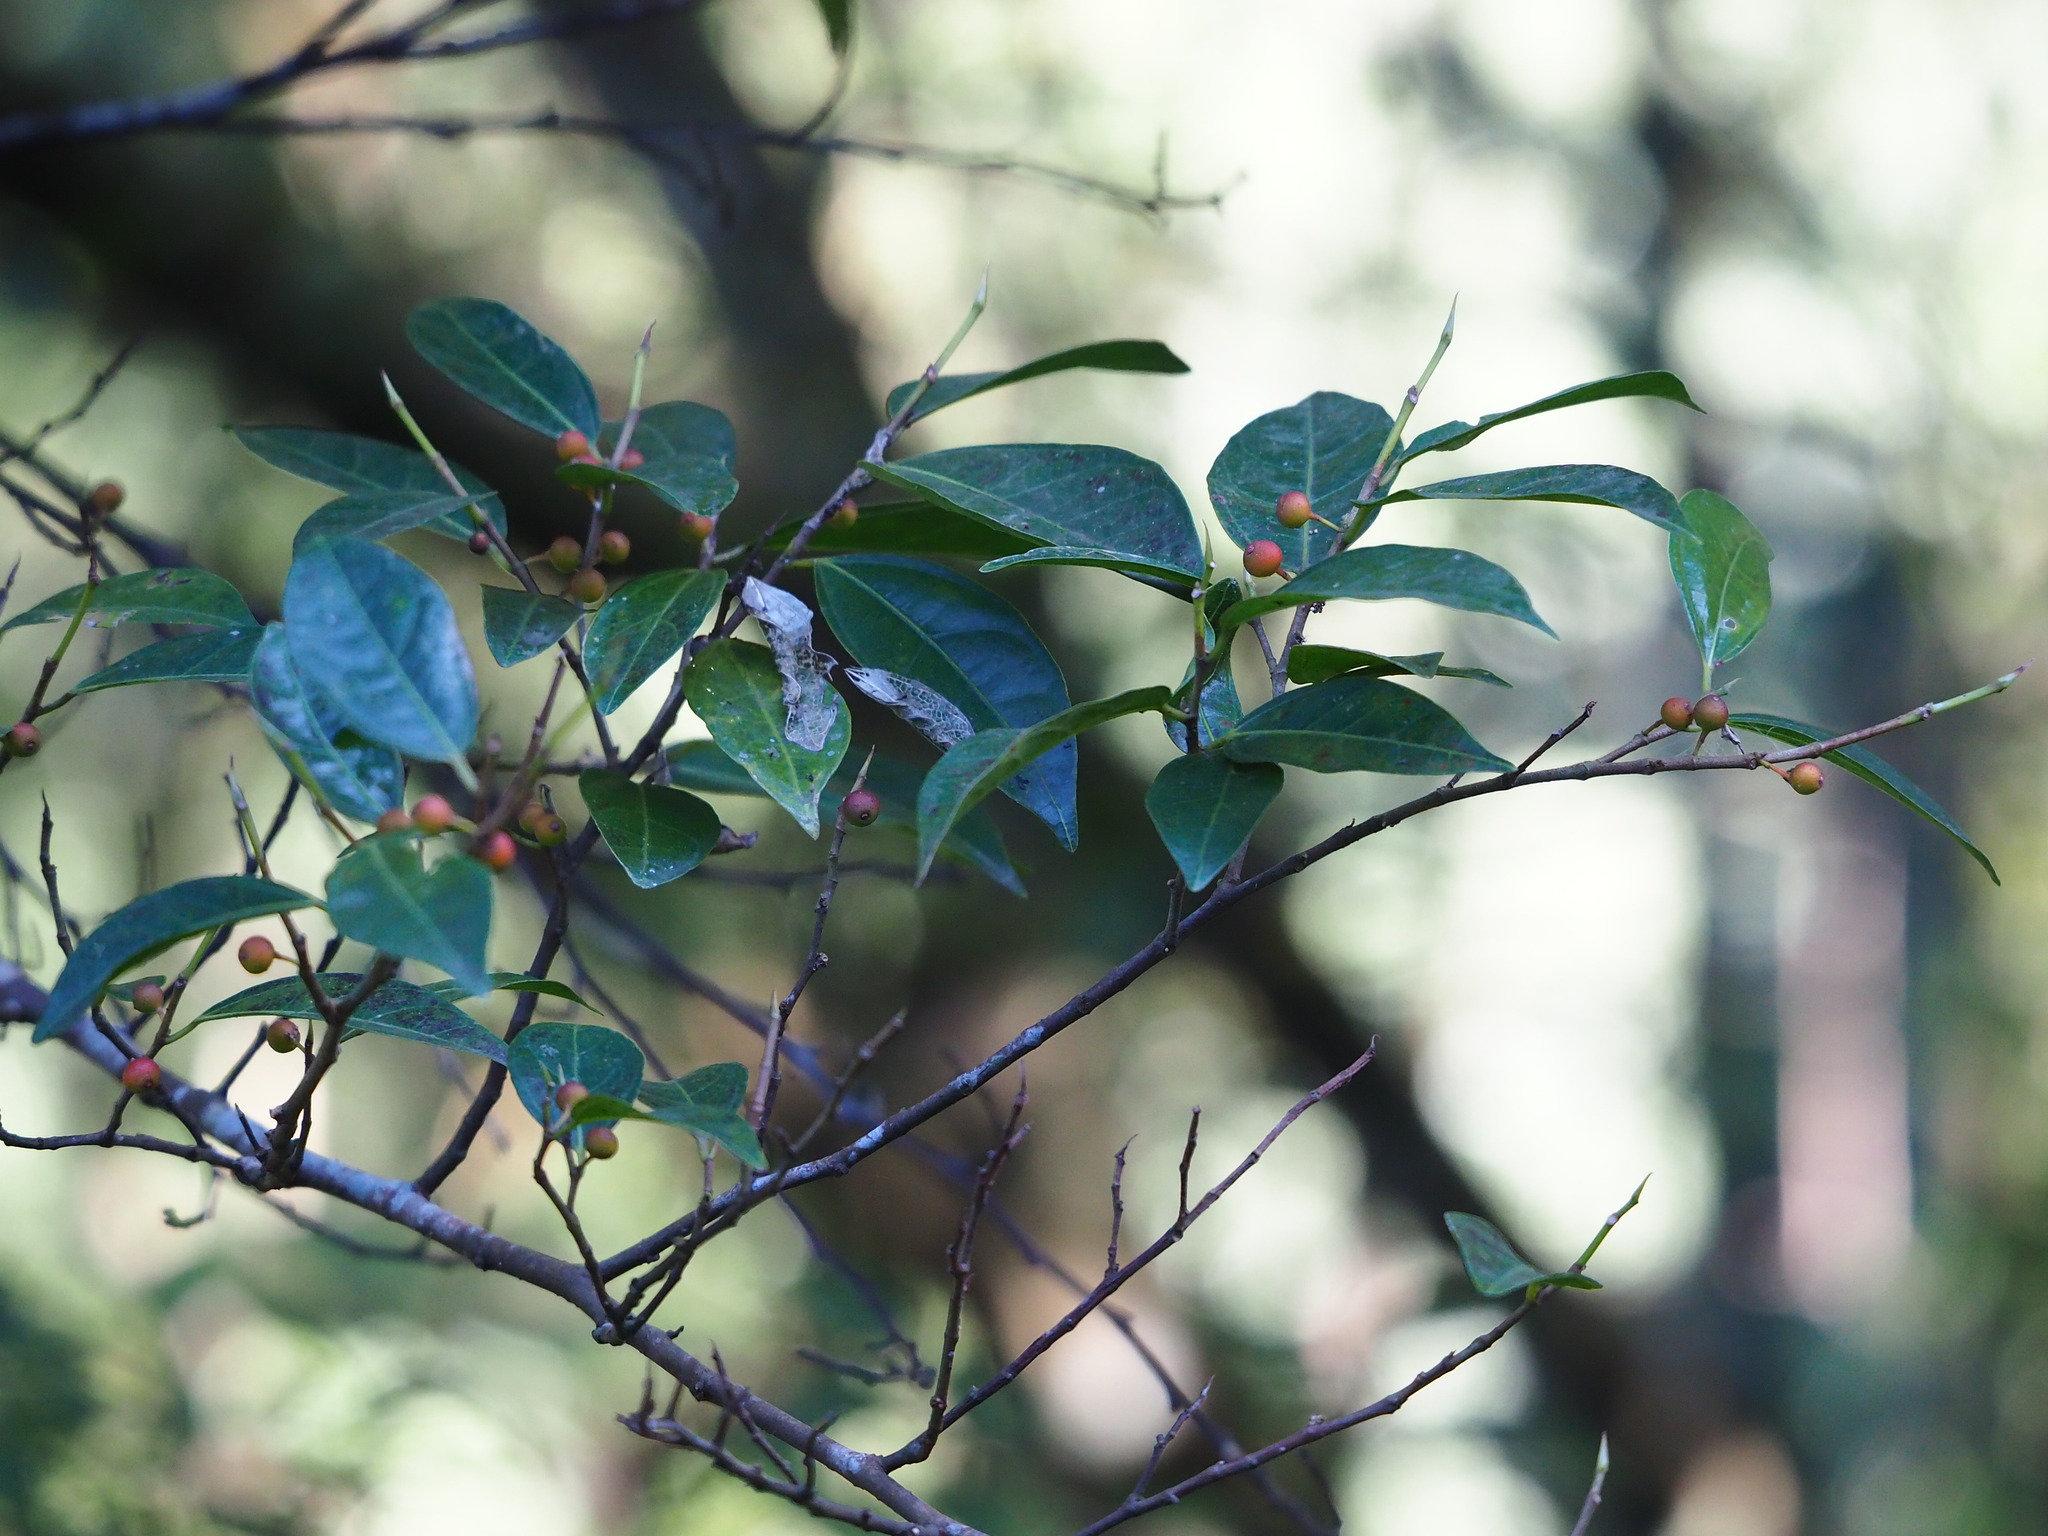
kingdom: Plantae
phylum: Tracheophyta
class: Magnoliopsida
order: Rosales
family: Moraceae
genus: Ficus
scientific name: Ficus ampelos
